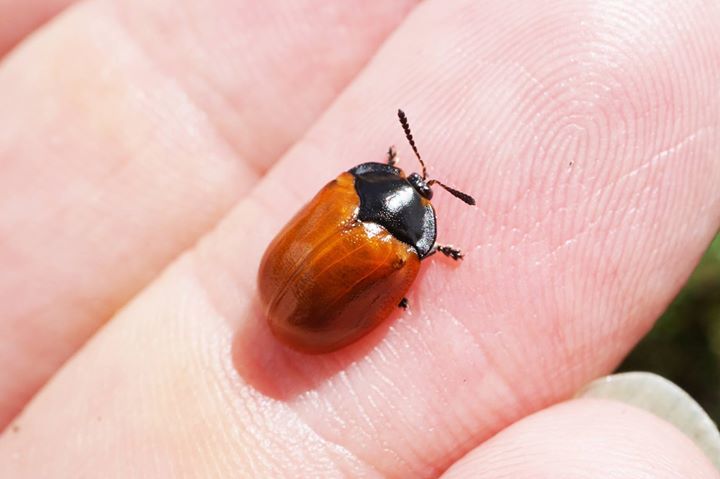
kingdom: Animalia
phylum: Arthropoda
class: Insecta
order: Coleoptera
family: Chrysomelidae
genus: Chelymorpha
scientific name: Chelymorpha cribraria
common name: Tortoise beetle
